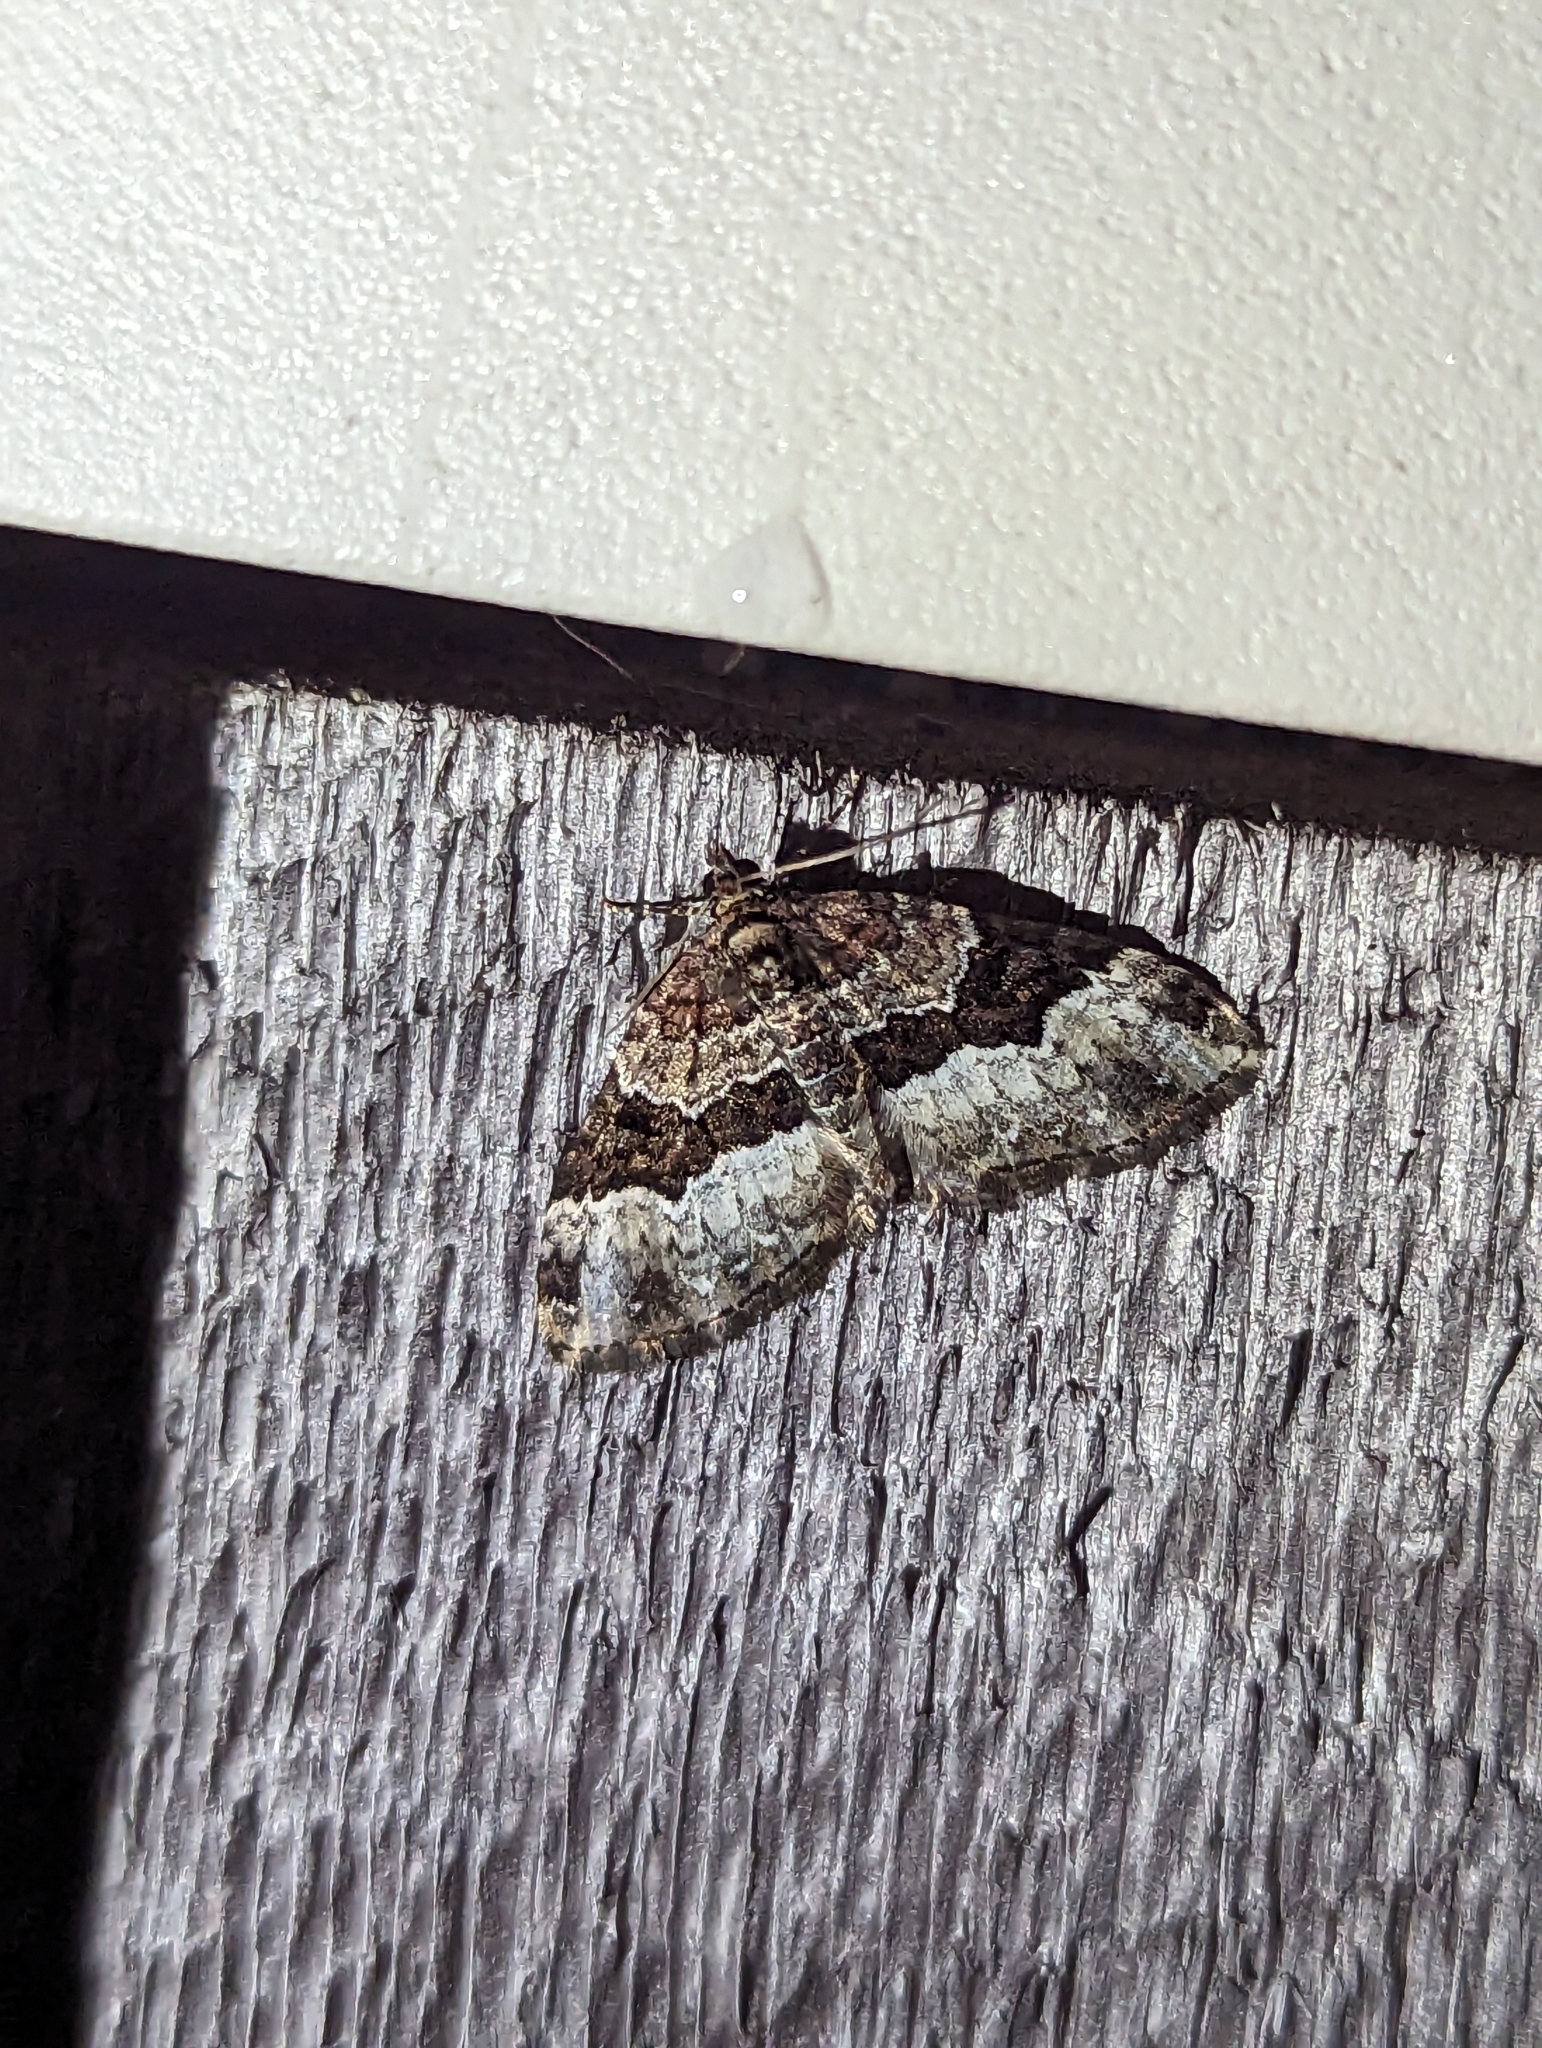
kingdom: Animalia
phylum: Arthropoda
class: Insecta
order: Lepidoptera
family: Geometridae
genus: Euphyia
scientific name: Euphyia intermediata
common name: Sharp-angled carpet
